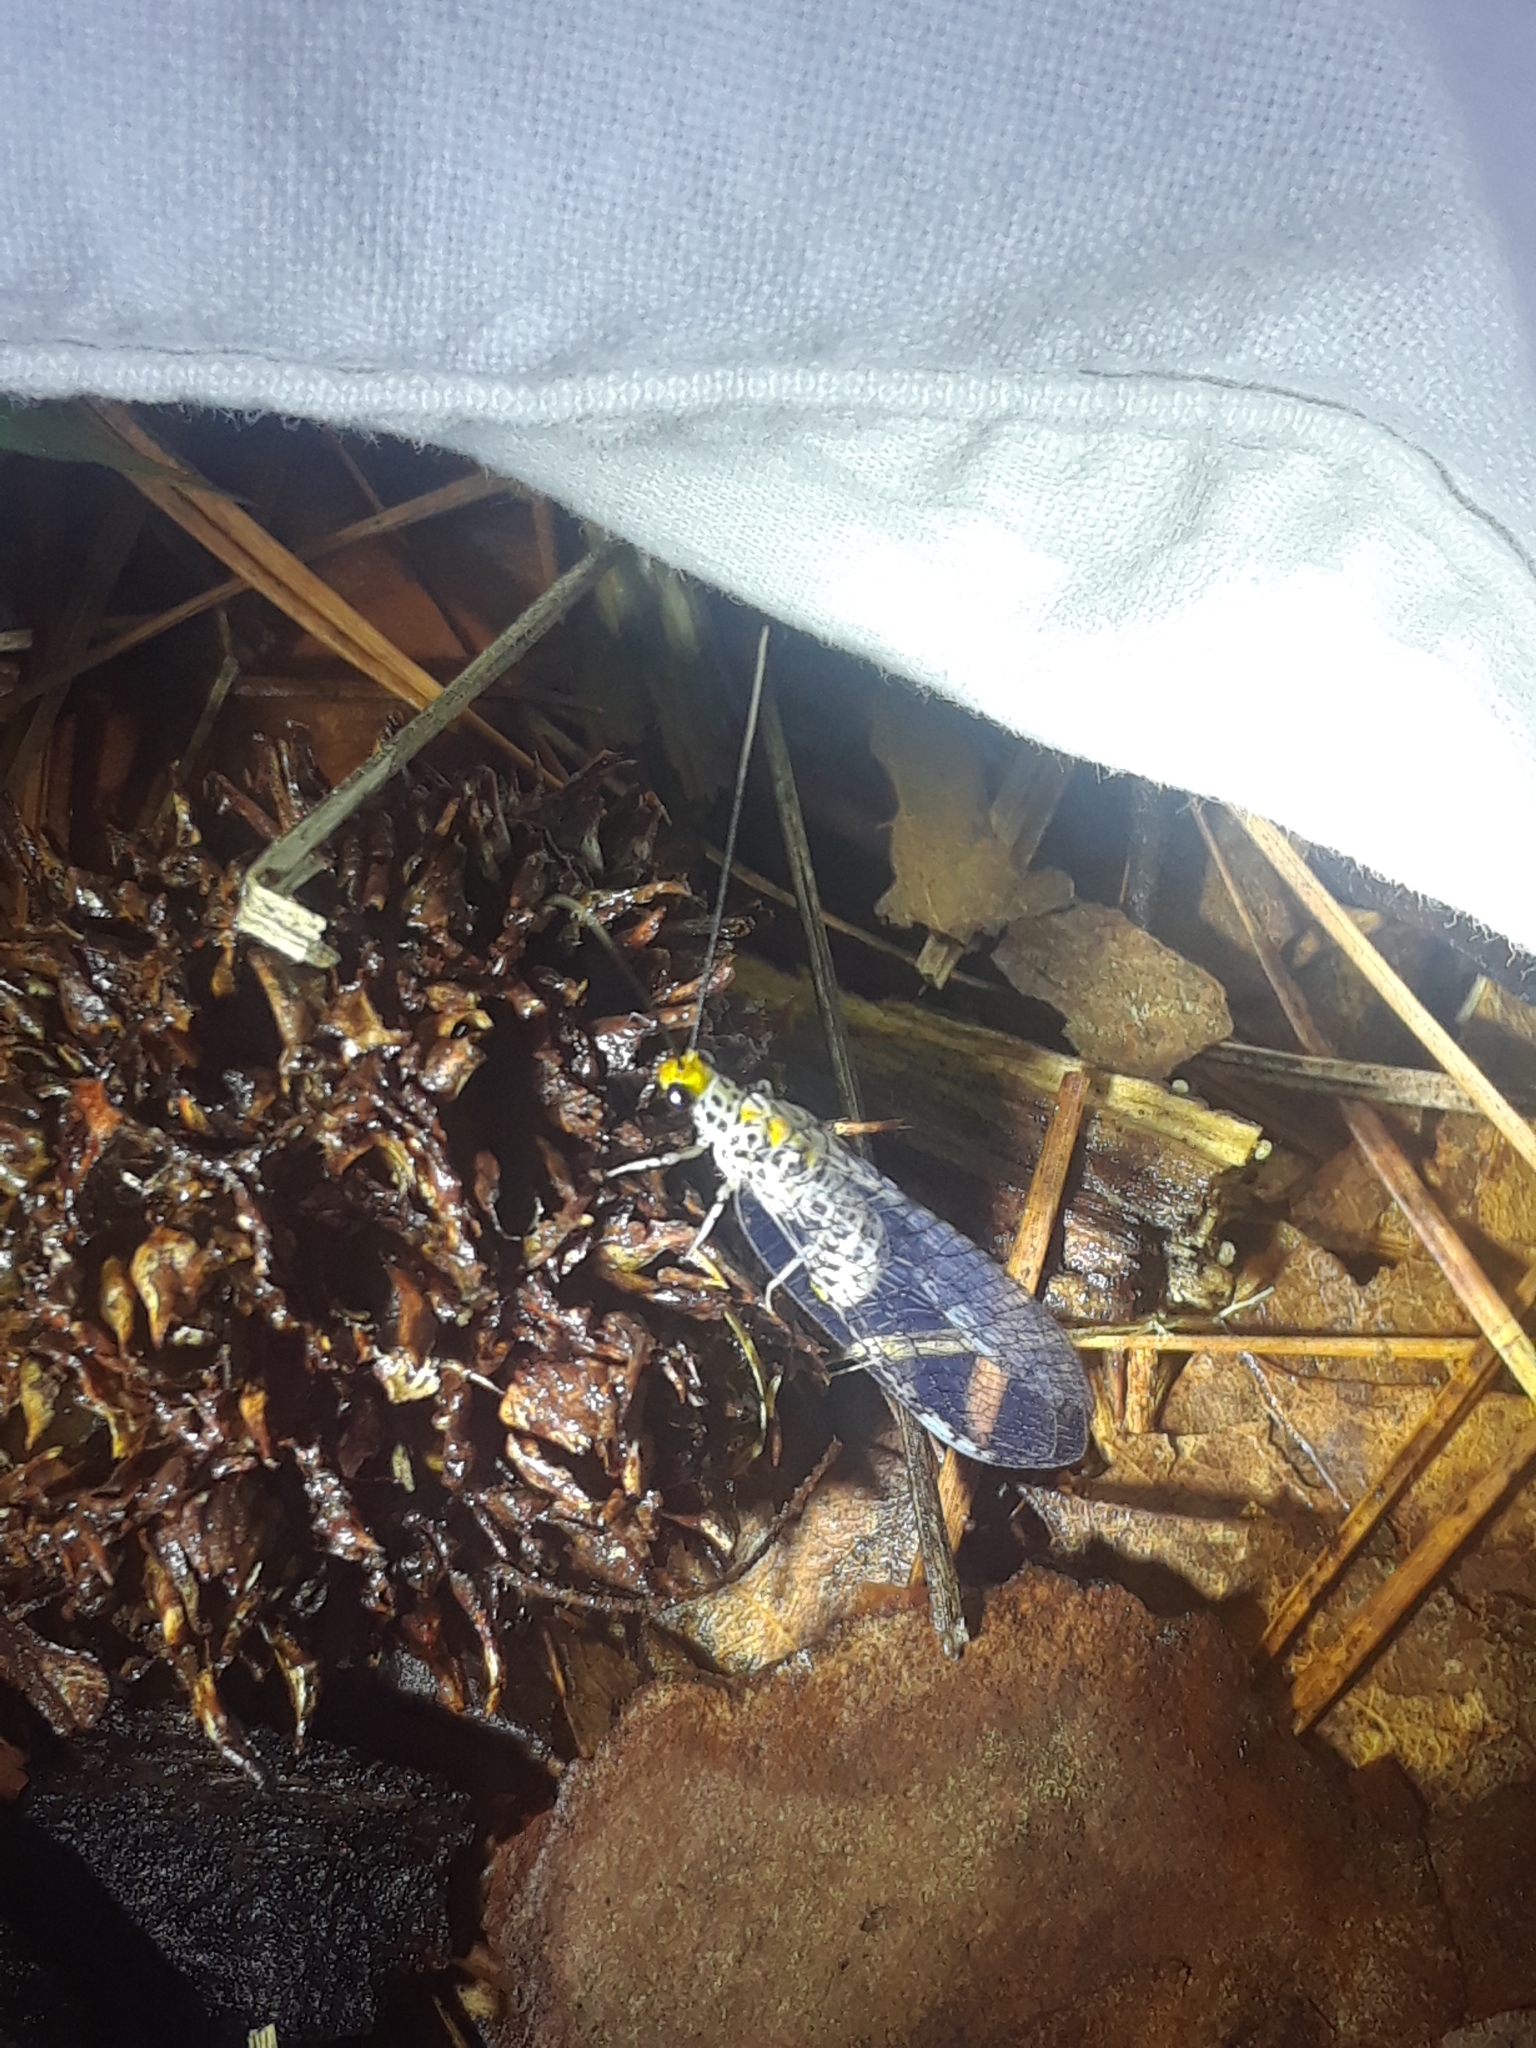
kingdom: Animalia
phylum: Arthropoda
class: Insecta
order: Neuroptera
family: Chrysopidae
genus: Abachrysa
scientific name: Abachrysa eureka
